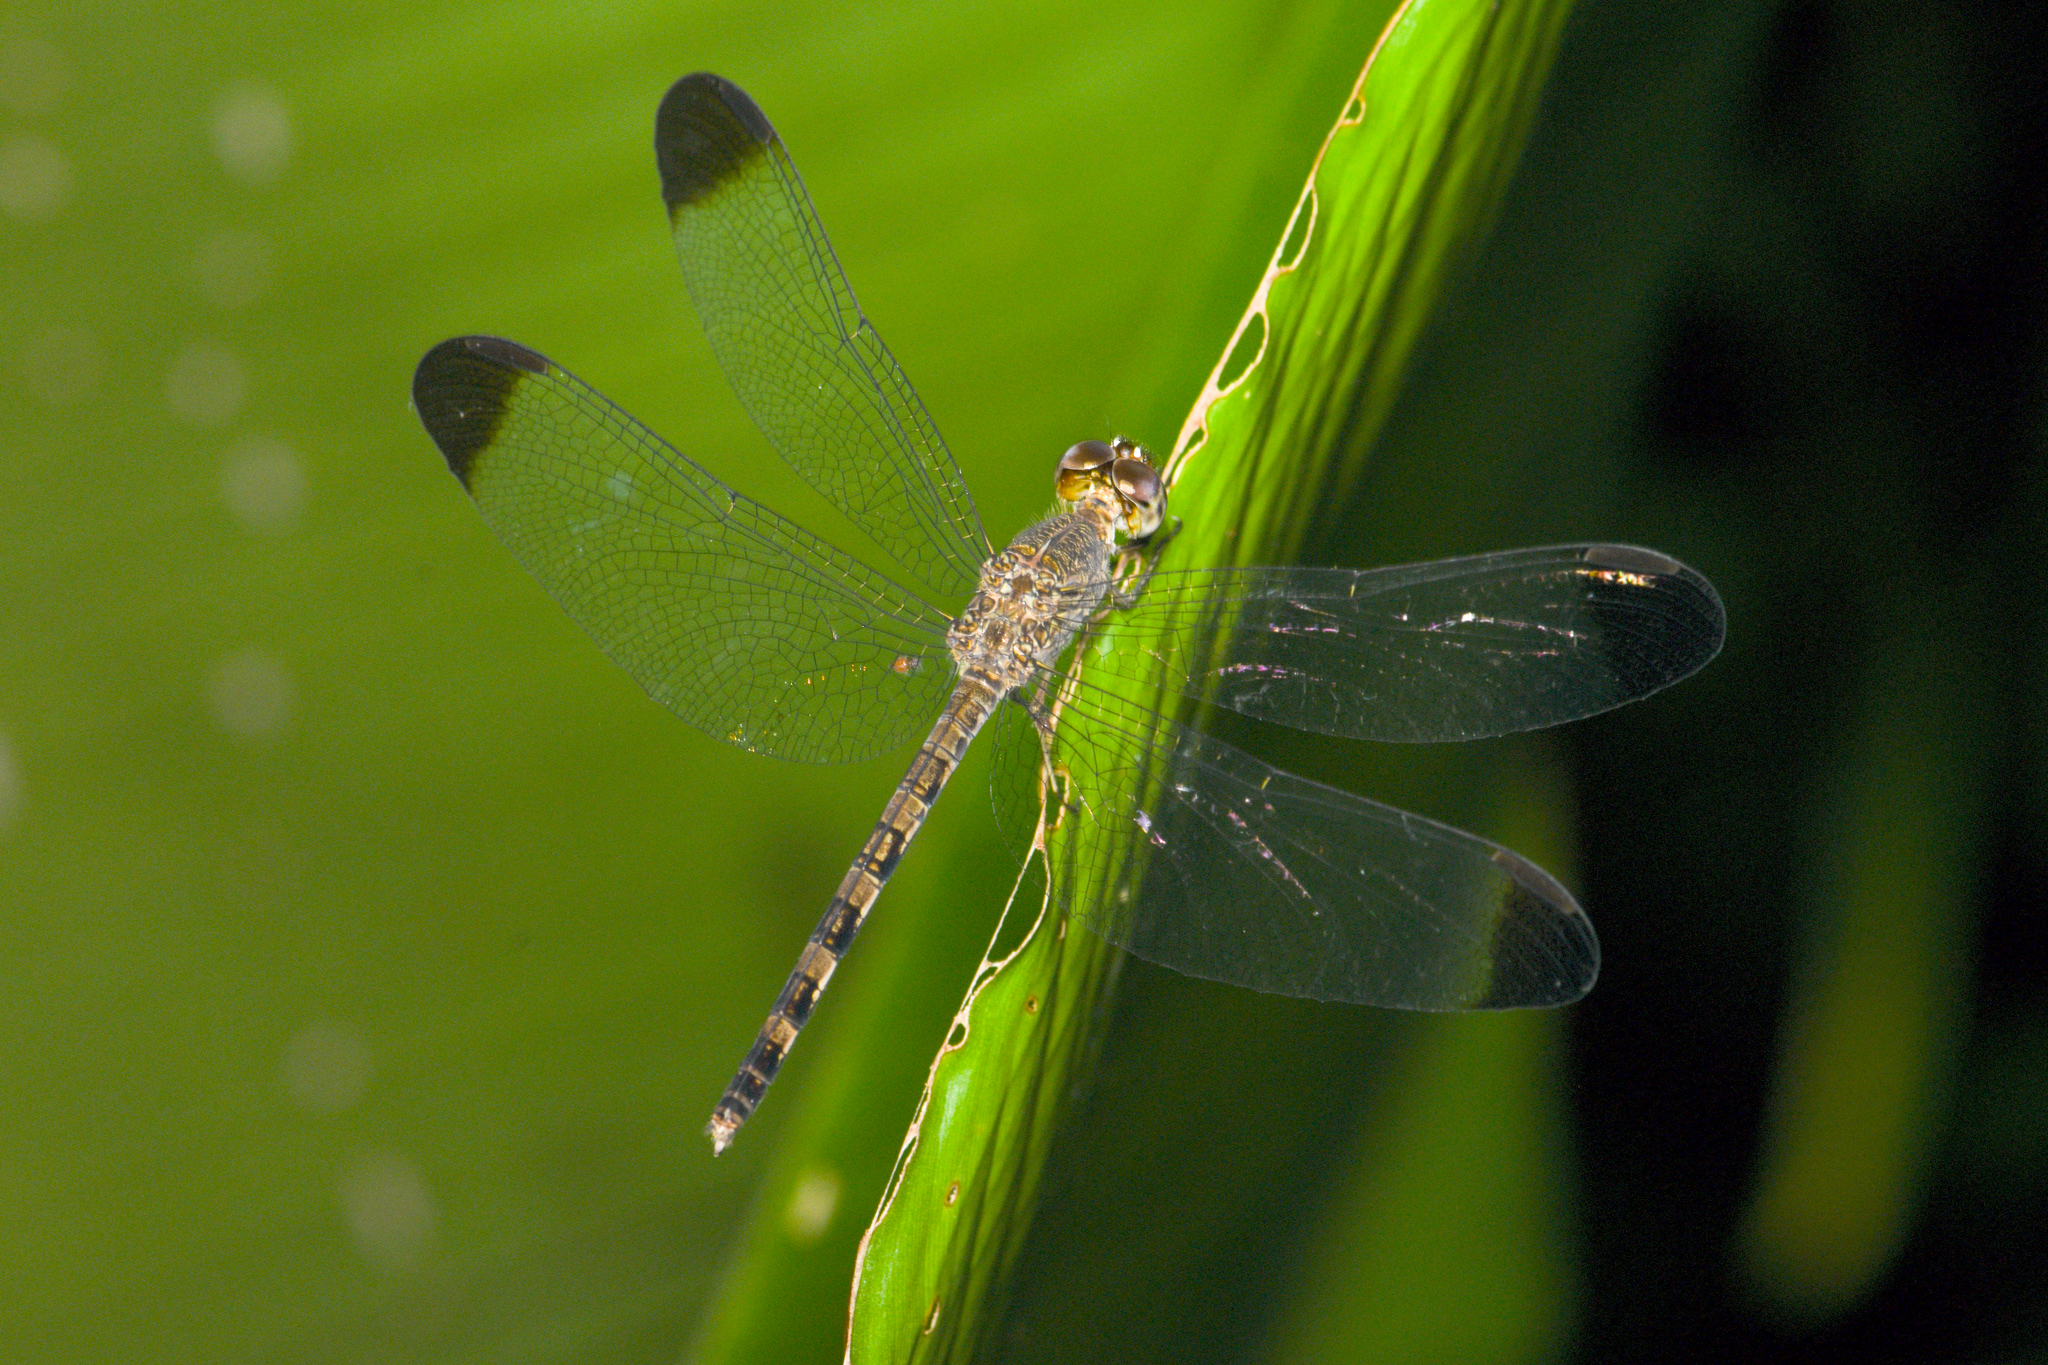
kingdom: Animalia
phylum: Arthropoda
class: Insecta
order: Odonata
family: Libellulidae
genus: Uracis
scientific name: Uracis imbuta
